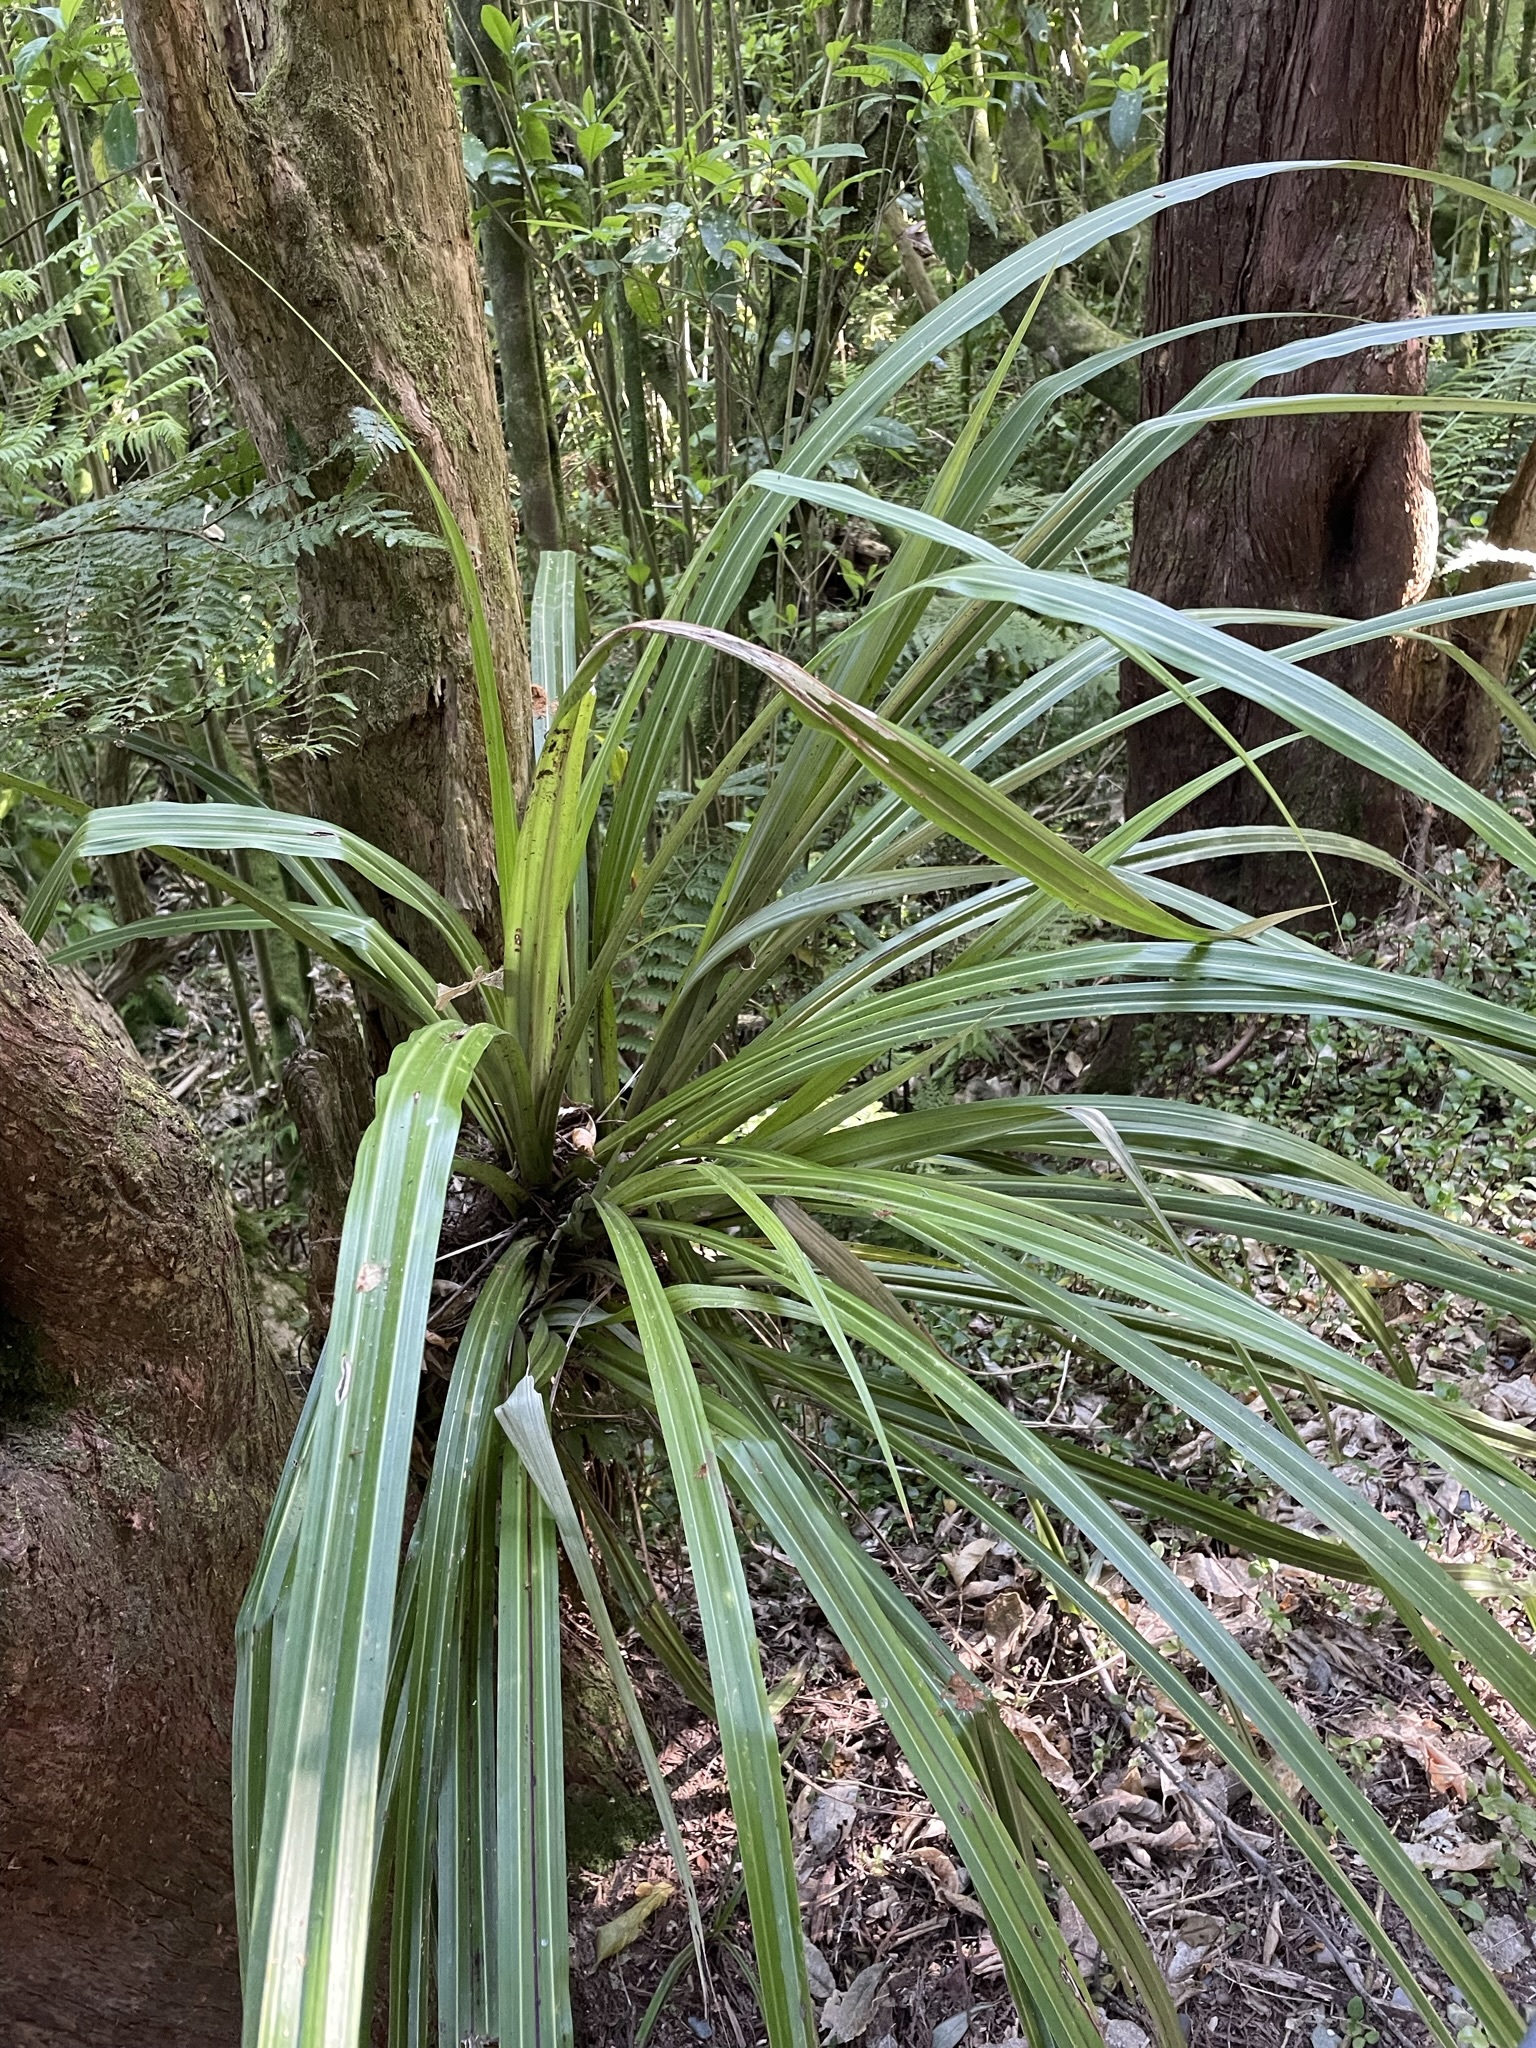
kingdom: Plantae
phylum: Tracheophyta
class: Liliopsida
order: Asparagales
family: Asteliaceae
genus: Astelia
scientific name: Astelia fragrans
